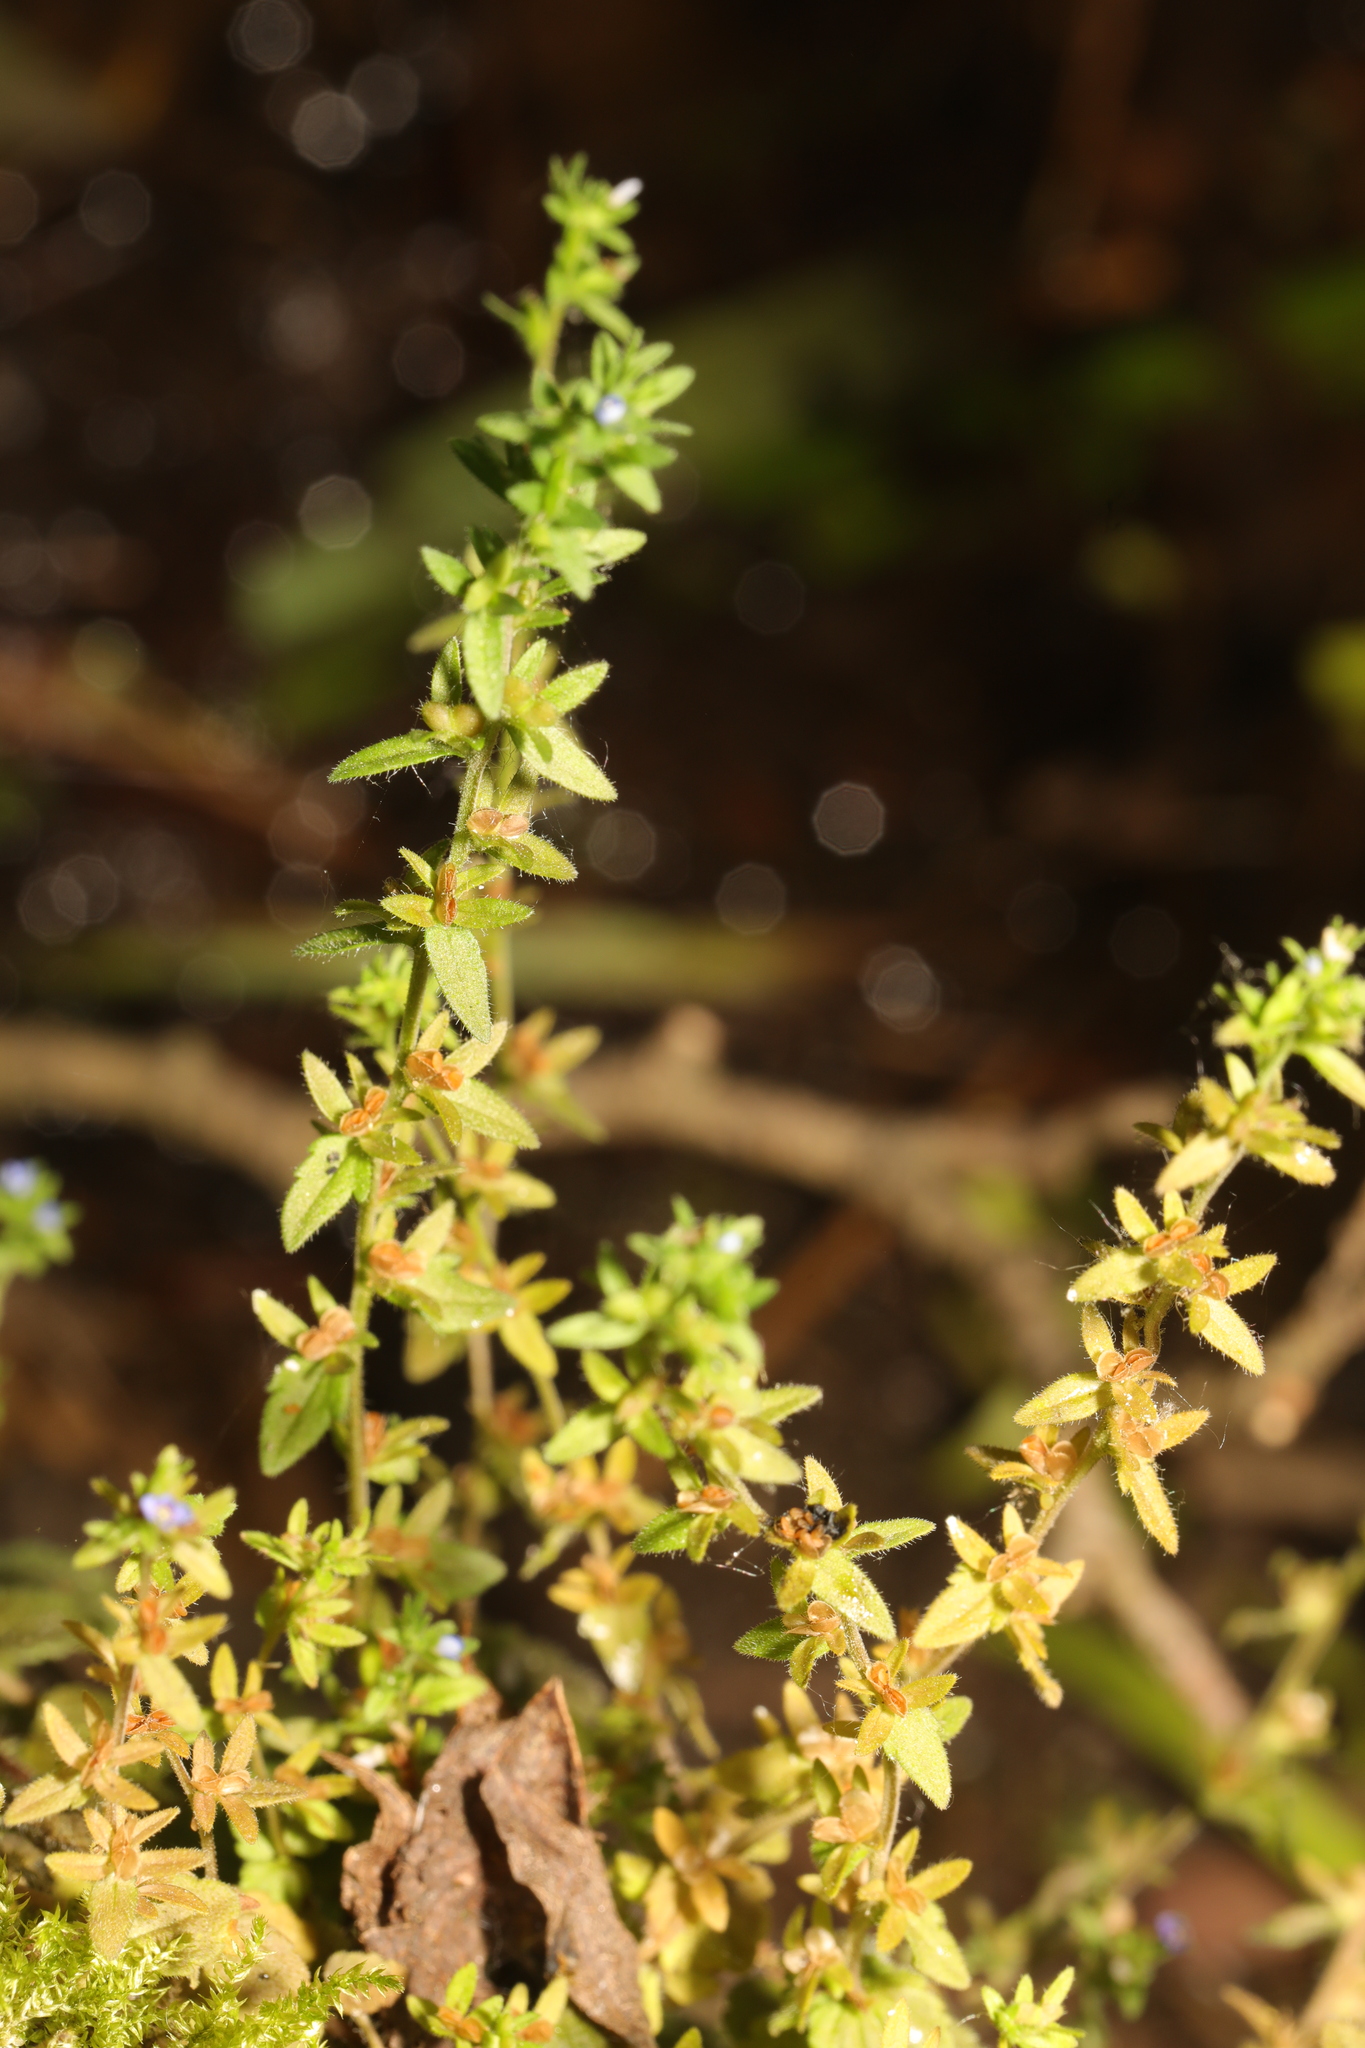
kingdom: Plantae
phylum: Tracheophyta
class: Magnoliopsida
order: Lamiales
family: Plantaginaceae
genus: Veronica
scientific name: Veronica arvensis
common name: Corn speedwell
